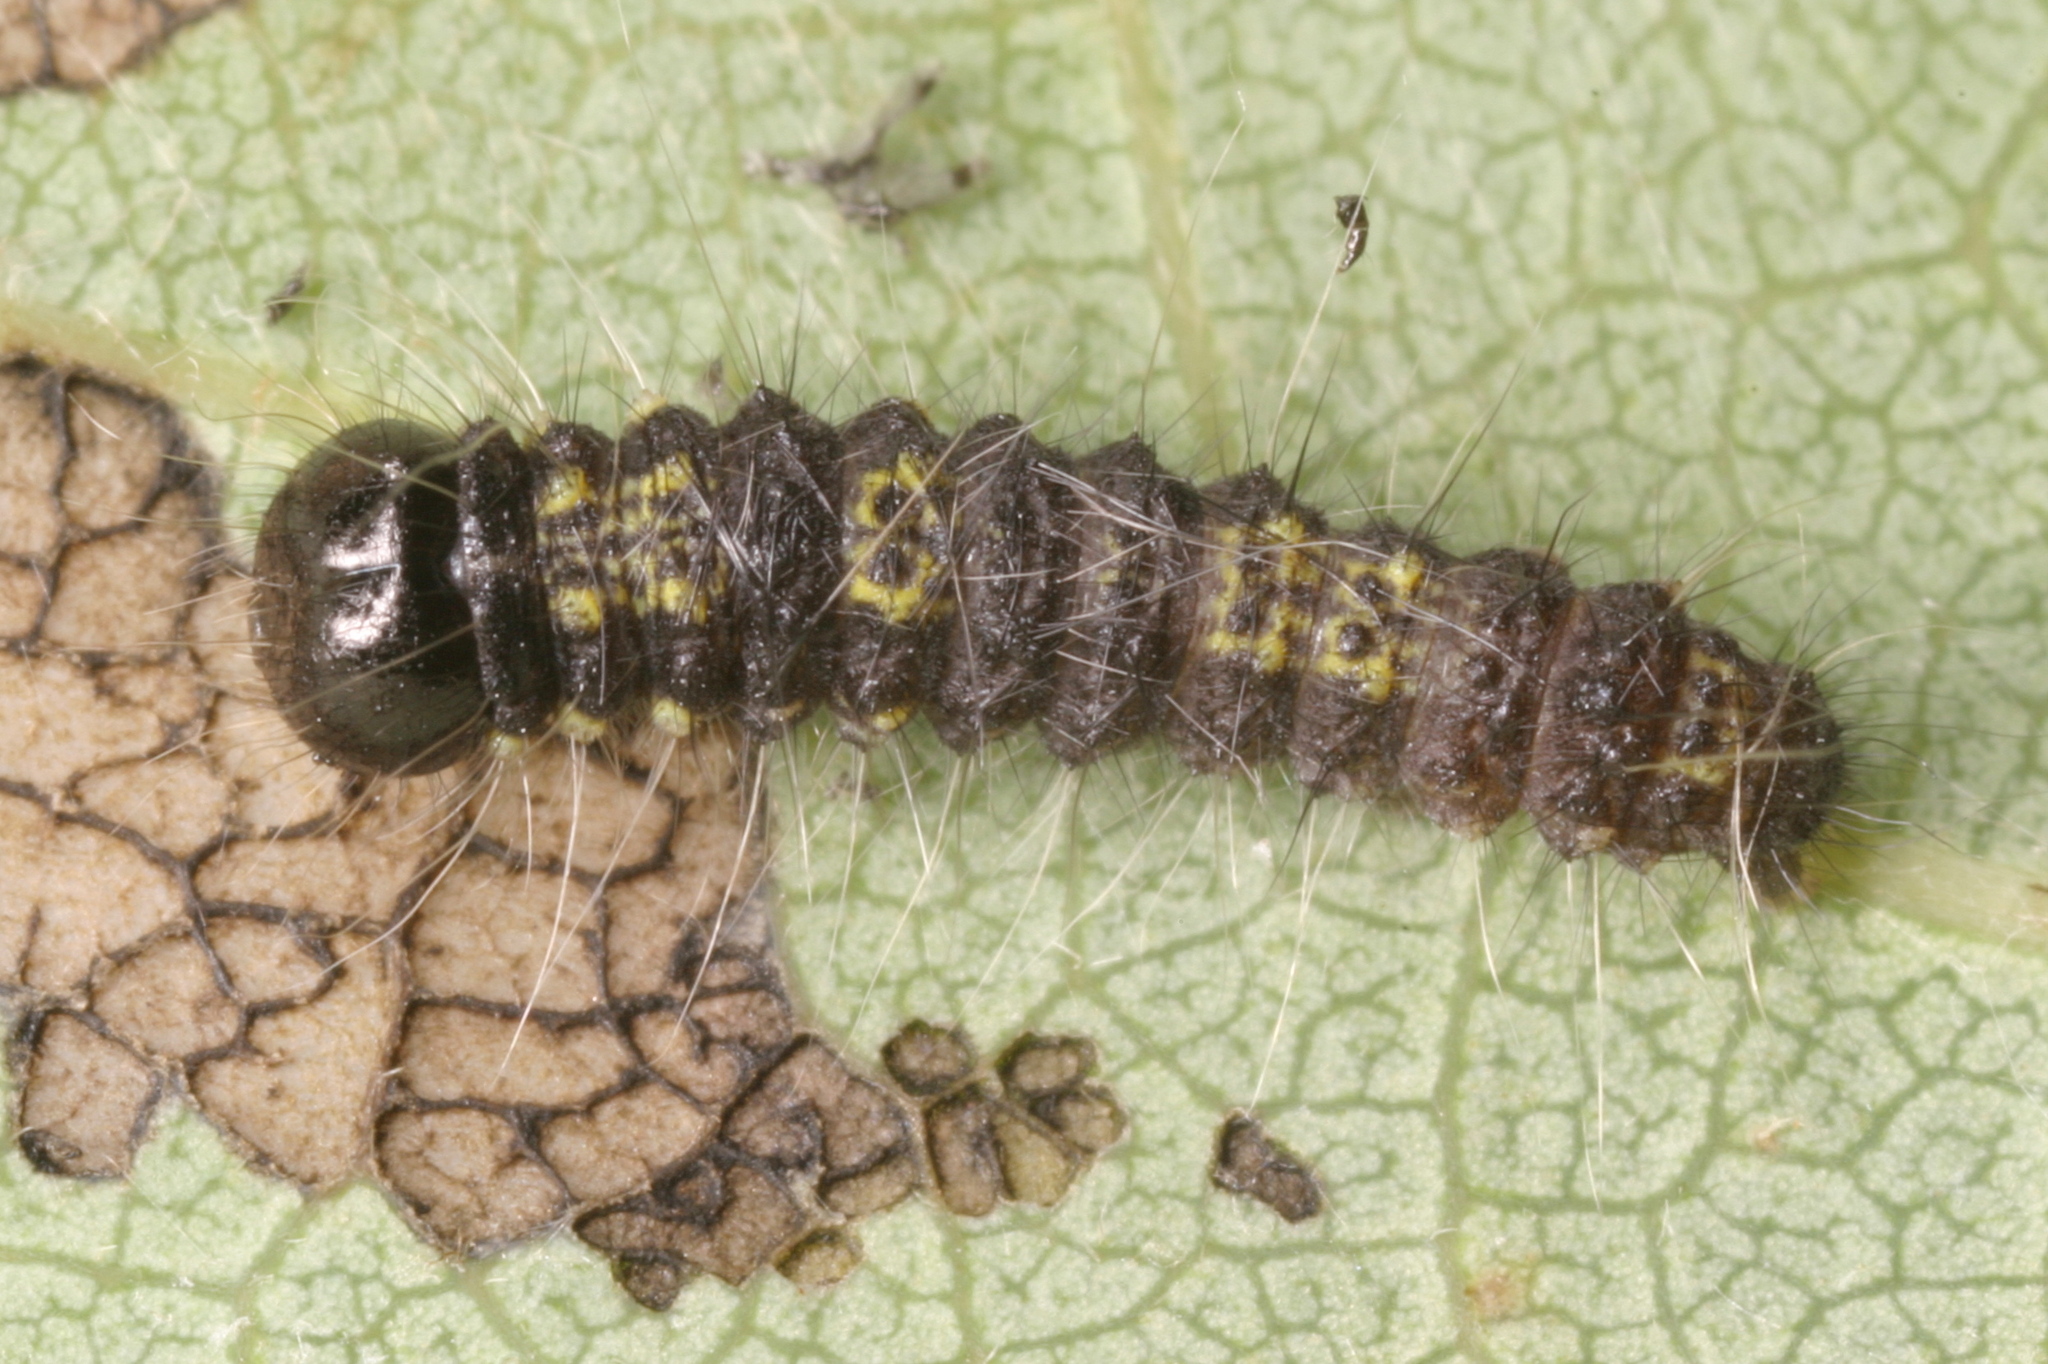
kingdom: Animalia
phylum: Arthropoda
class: Insecta
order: Lepidoptera
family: Notodontidae
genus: Clostera
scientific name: Clostera pigra
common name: Small chocolate-tip
